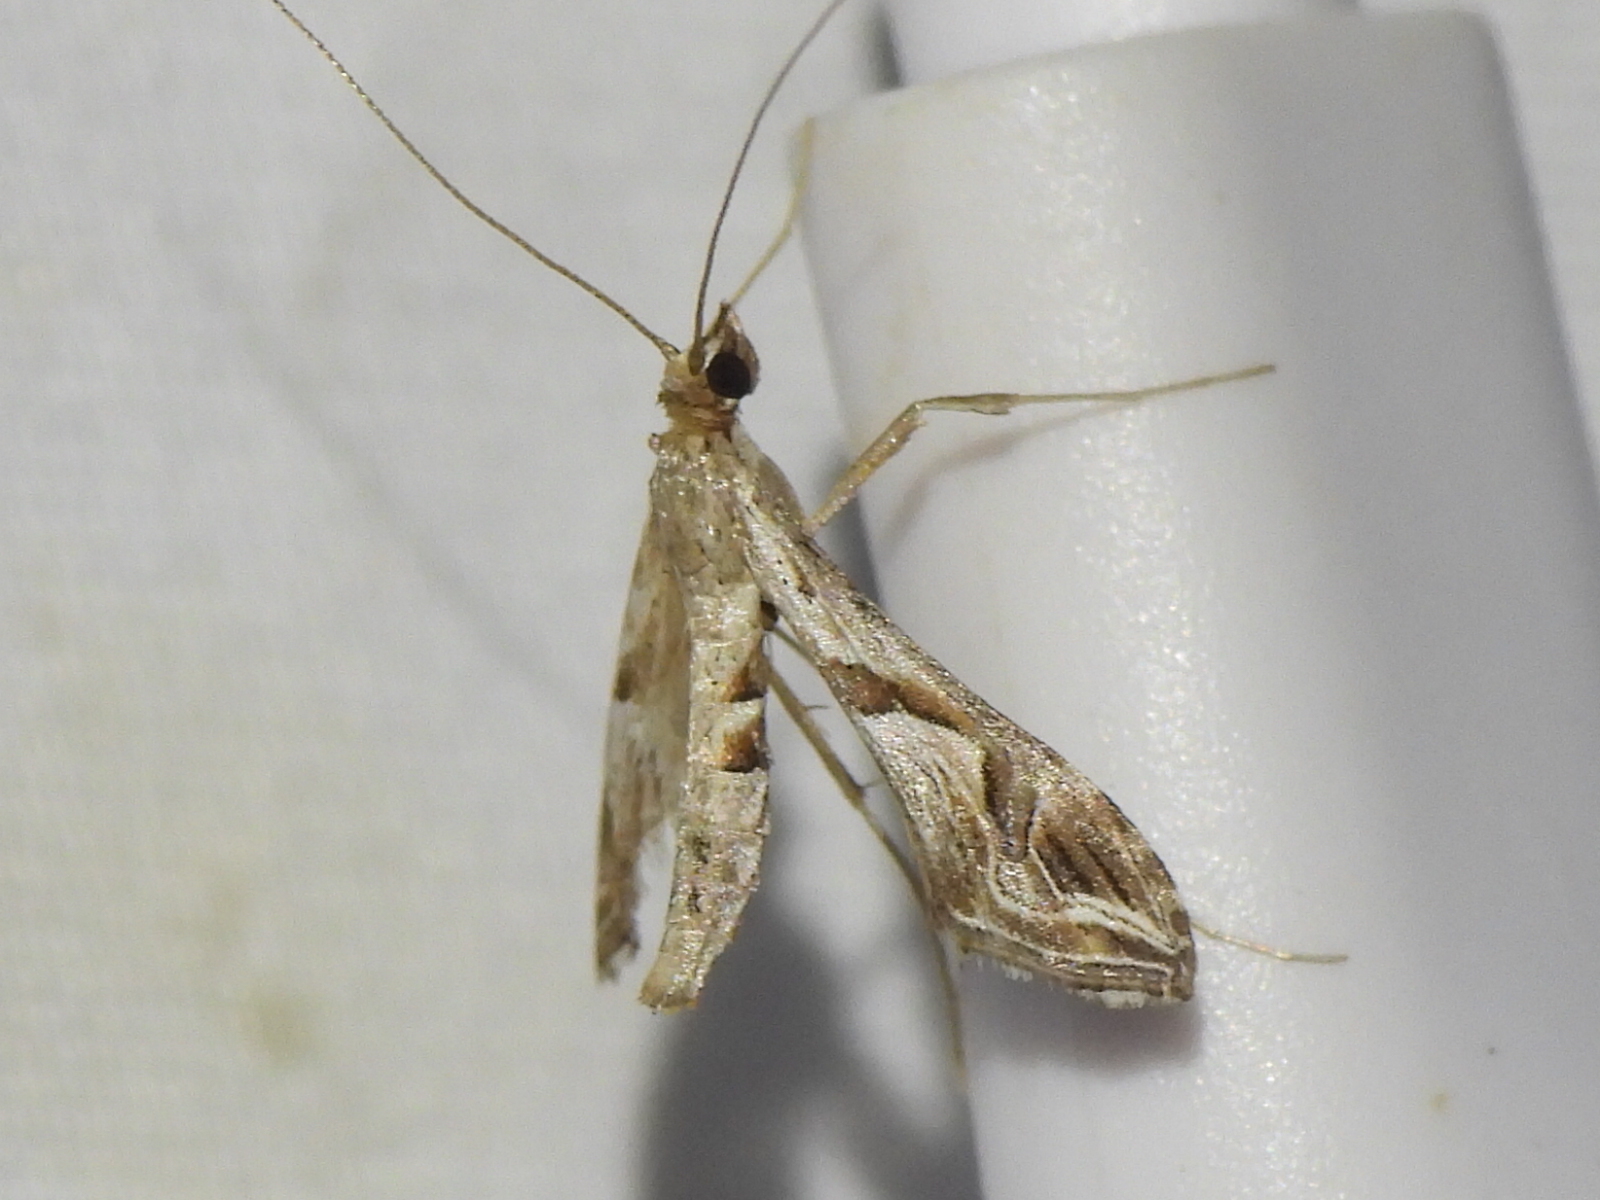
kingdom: Animalia
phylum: Arthropoda
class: Insecta
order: Lepidoptera
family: Crambidae
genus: Lineodes
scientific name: Lineodes integra
